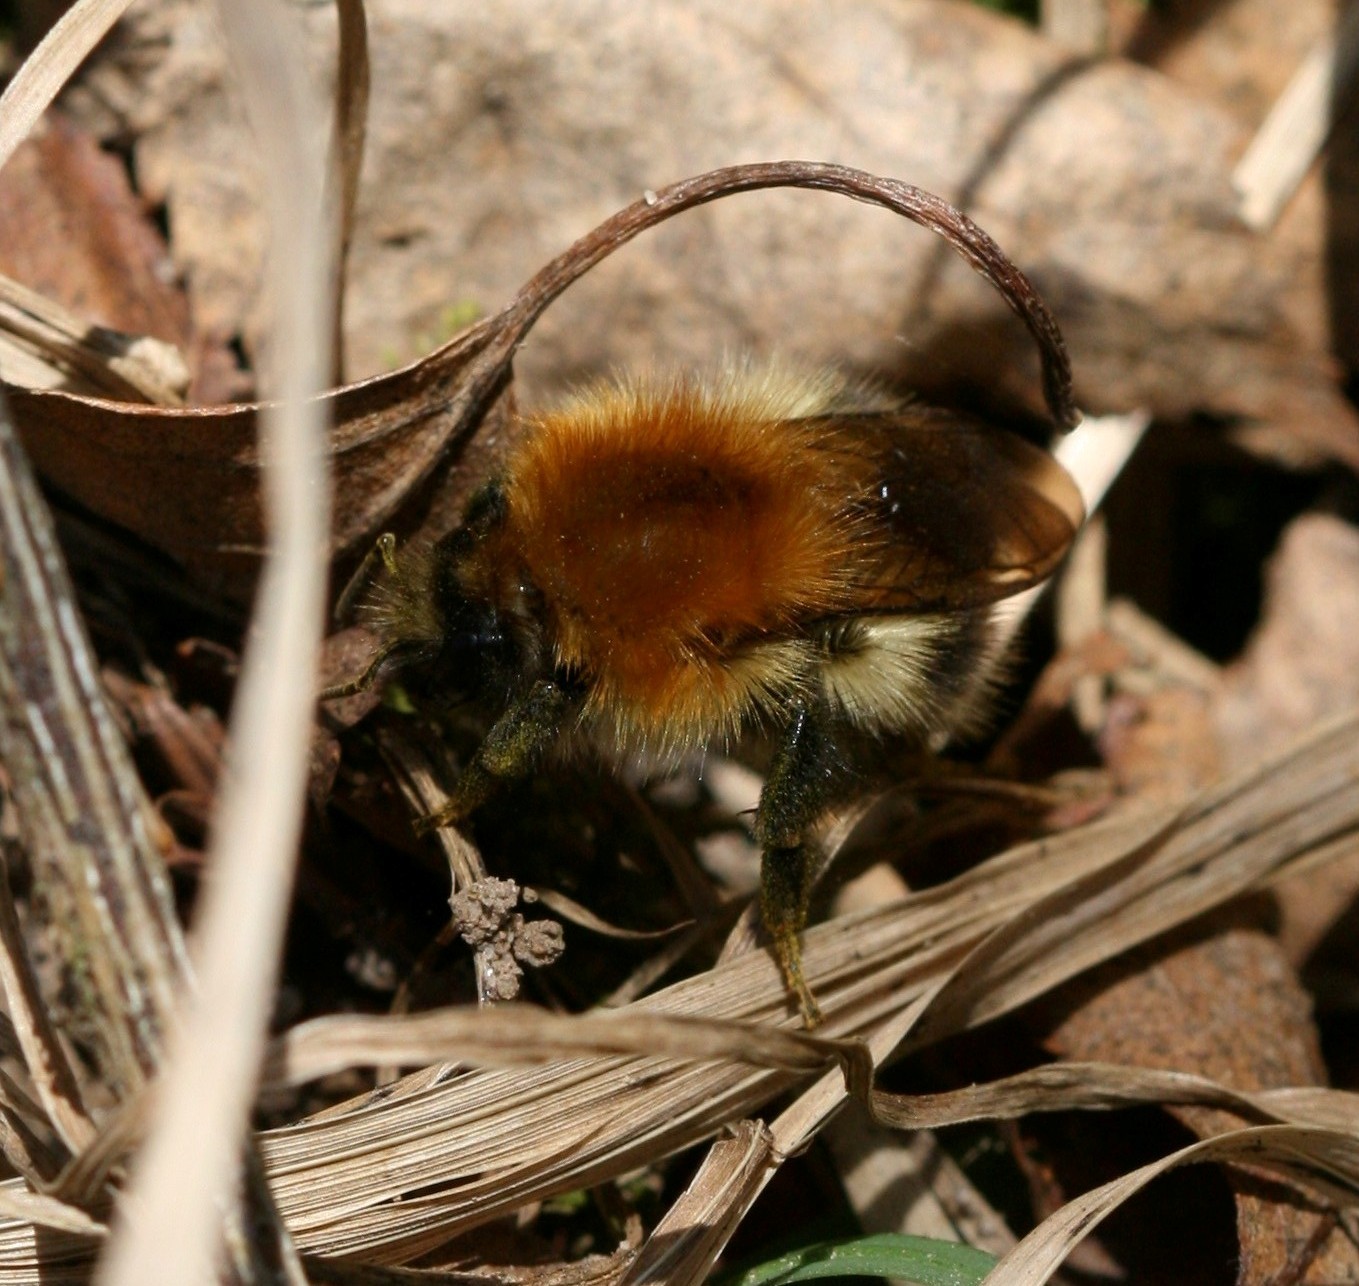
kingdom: Animalia
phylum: Arthropoda
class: Insecta
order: Hymenoptera
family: Apidae
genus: Bombus
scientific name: Bombus pascuorum
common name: Common carder bee
